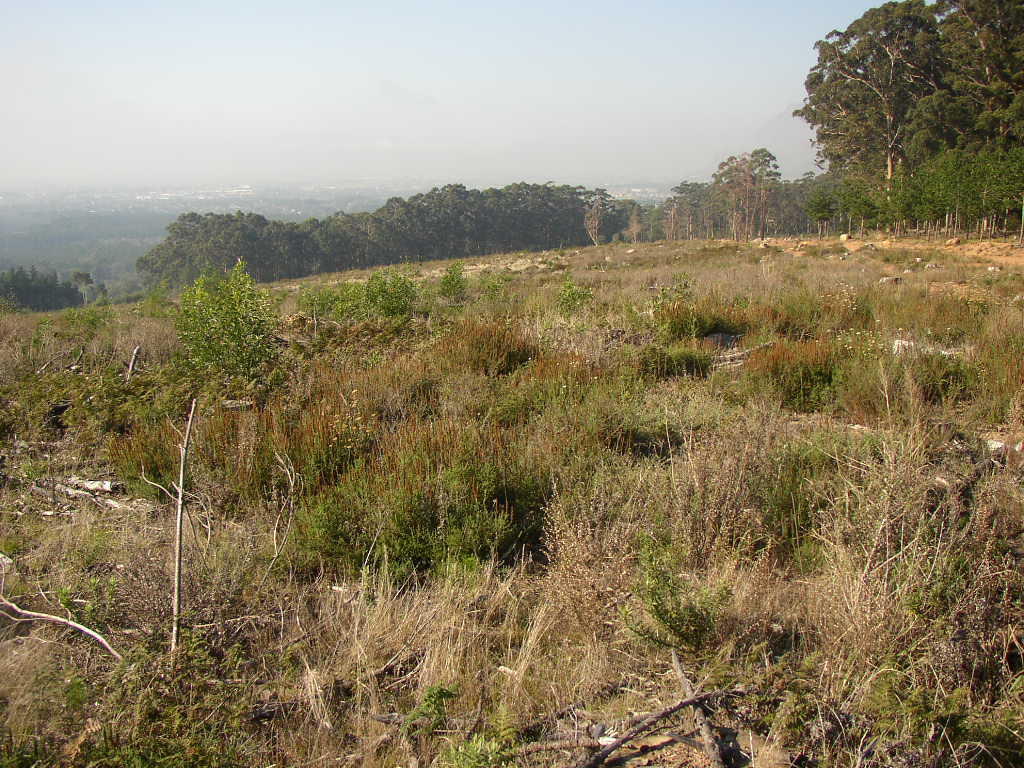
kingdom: Plantae
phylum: Tracheophyta
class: Magnoliopsida
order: Asterales
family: Asteraceae
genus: Seriphium
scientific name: Seriphium cinereum
